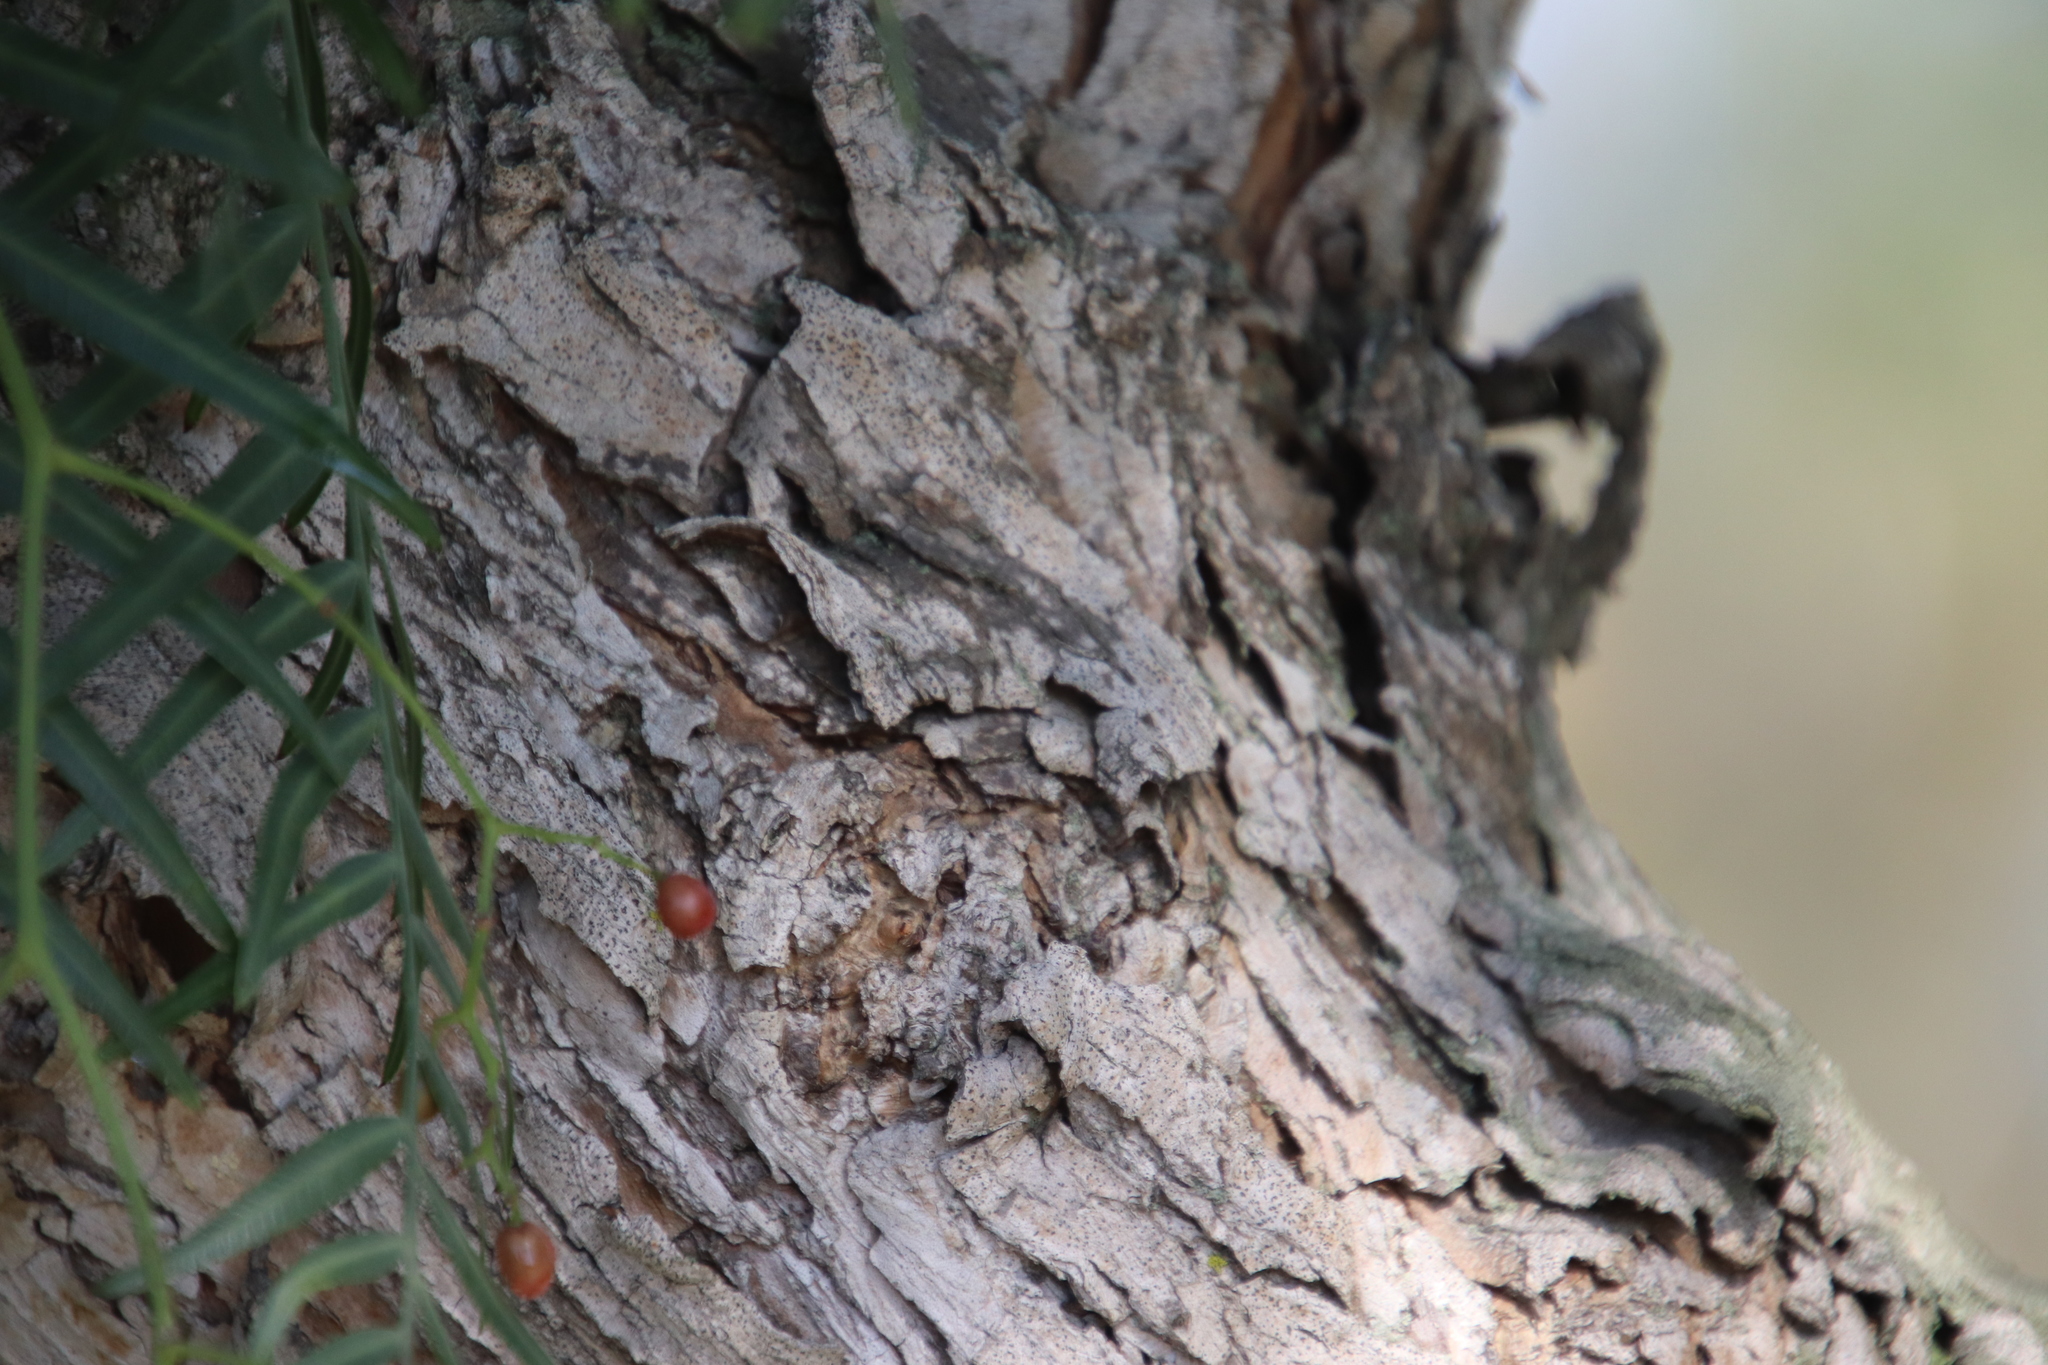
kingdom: Plantae
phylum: Tracheophyta
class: Magnoliopsida
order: Sapindales
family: Anacardiaceae
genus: Schinus
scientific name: Schinus molle
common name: Peruvian peppertree
